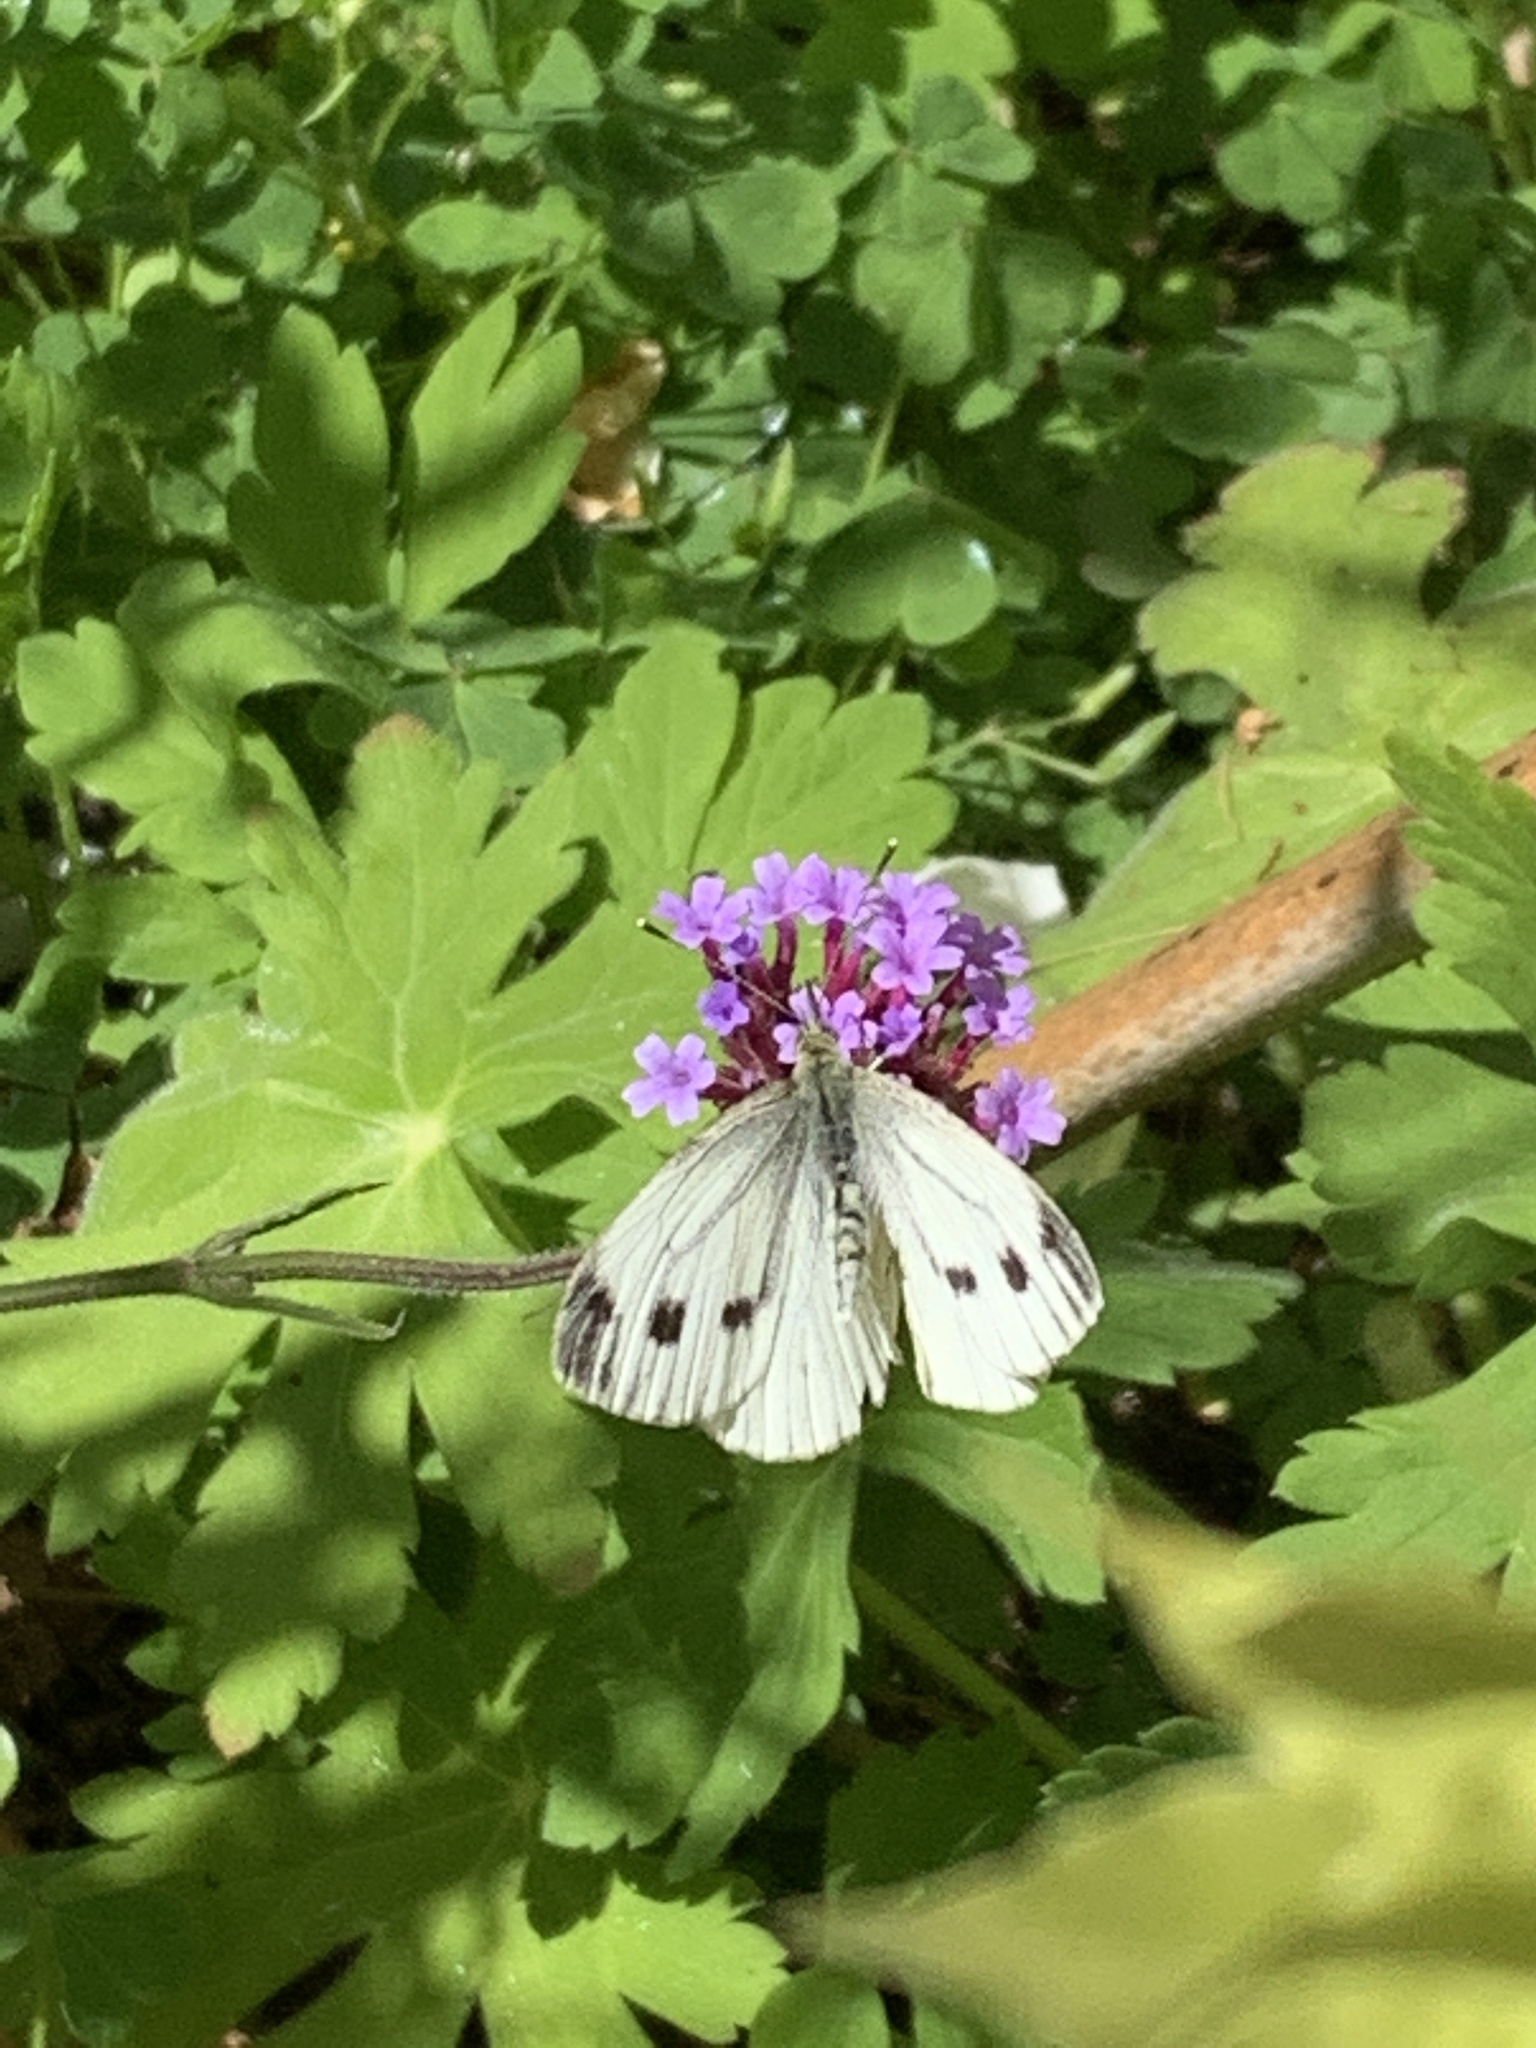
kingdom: Animalia
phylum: Arthropoda
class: Insecta
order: Lepidoptera
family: Pieridae
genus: Pieris
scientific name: Pieris napi
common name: Green-veined white
